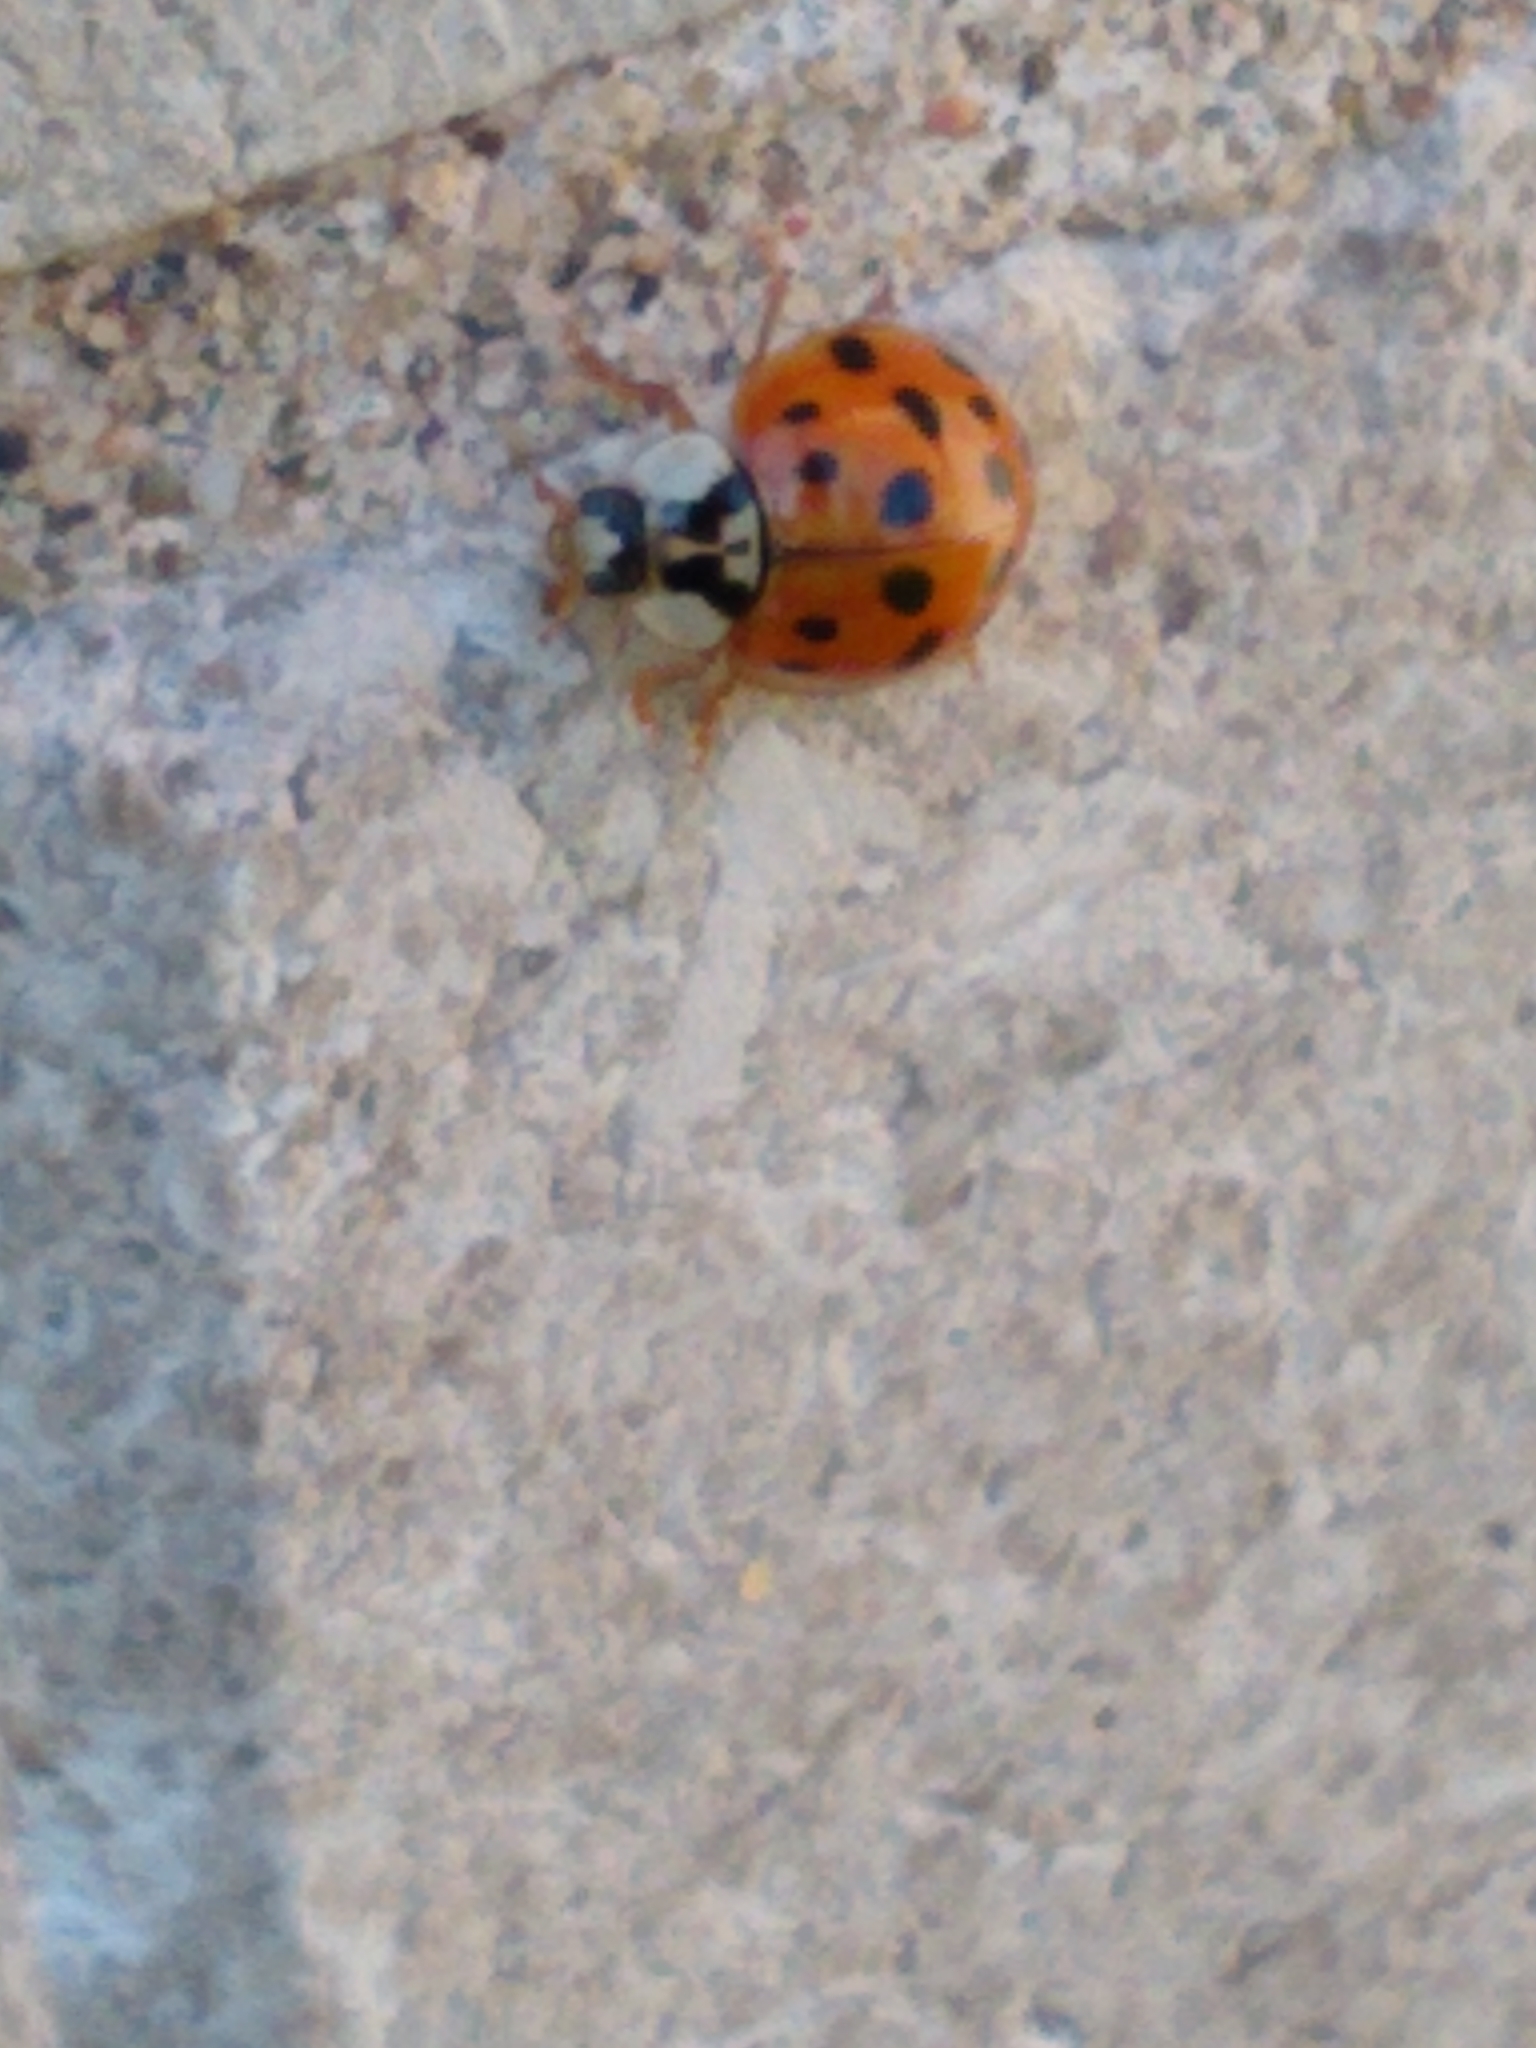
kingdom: Animalia
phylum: Arthropoda
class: Insecta
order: Coleoptera
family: Coccinellidae
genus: Harmonia
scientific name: Harmonia axyridis
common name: Harlequin ladybird
